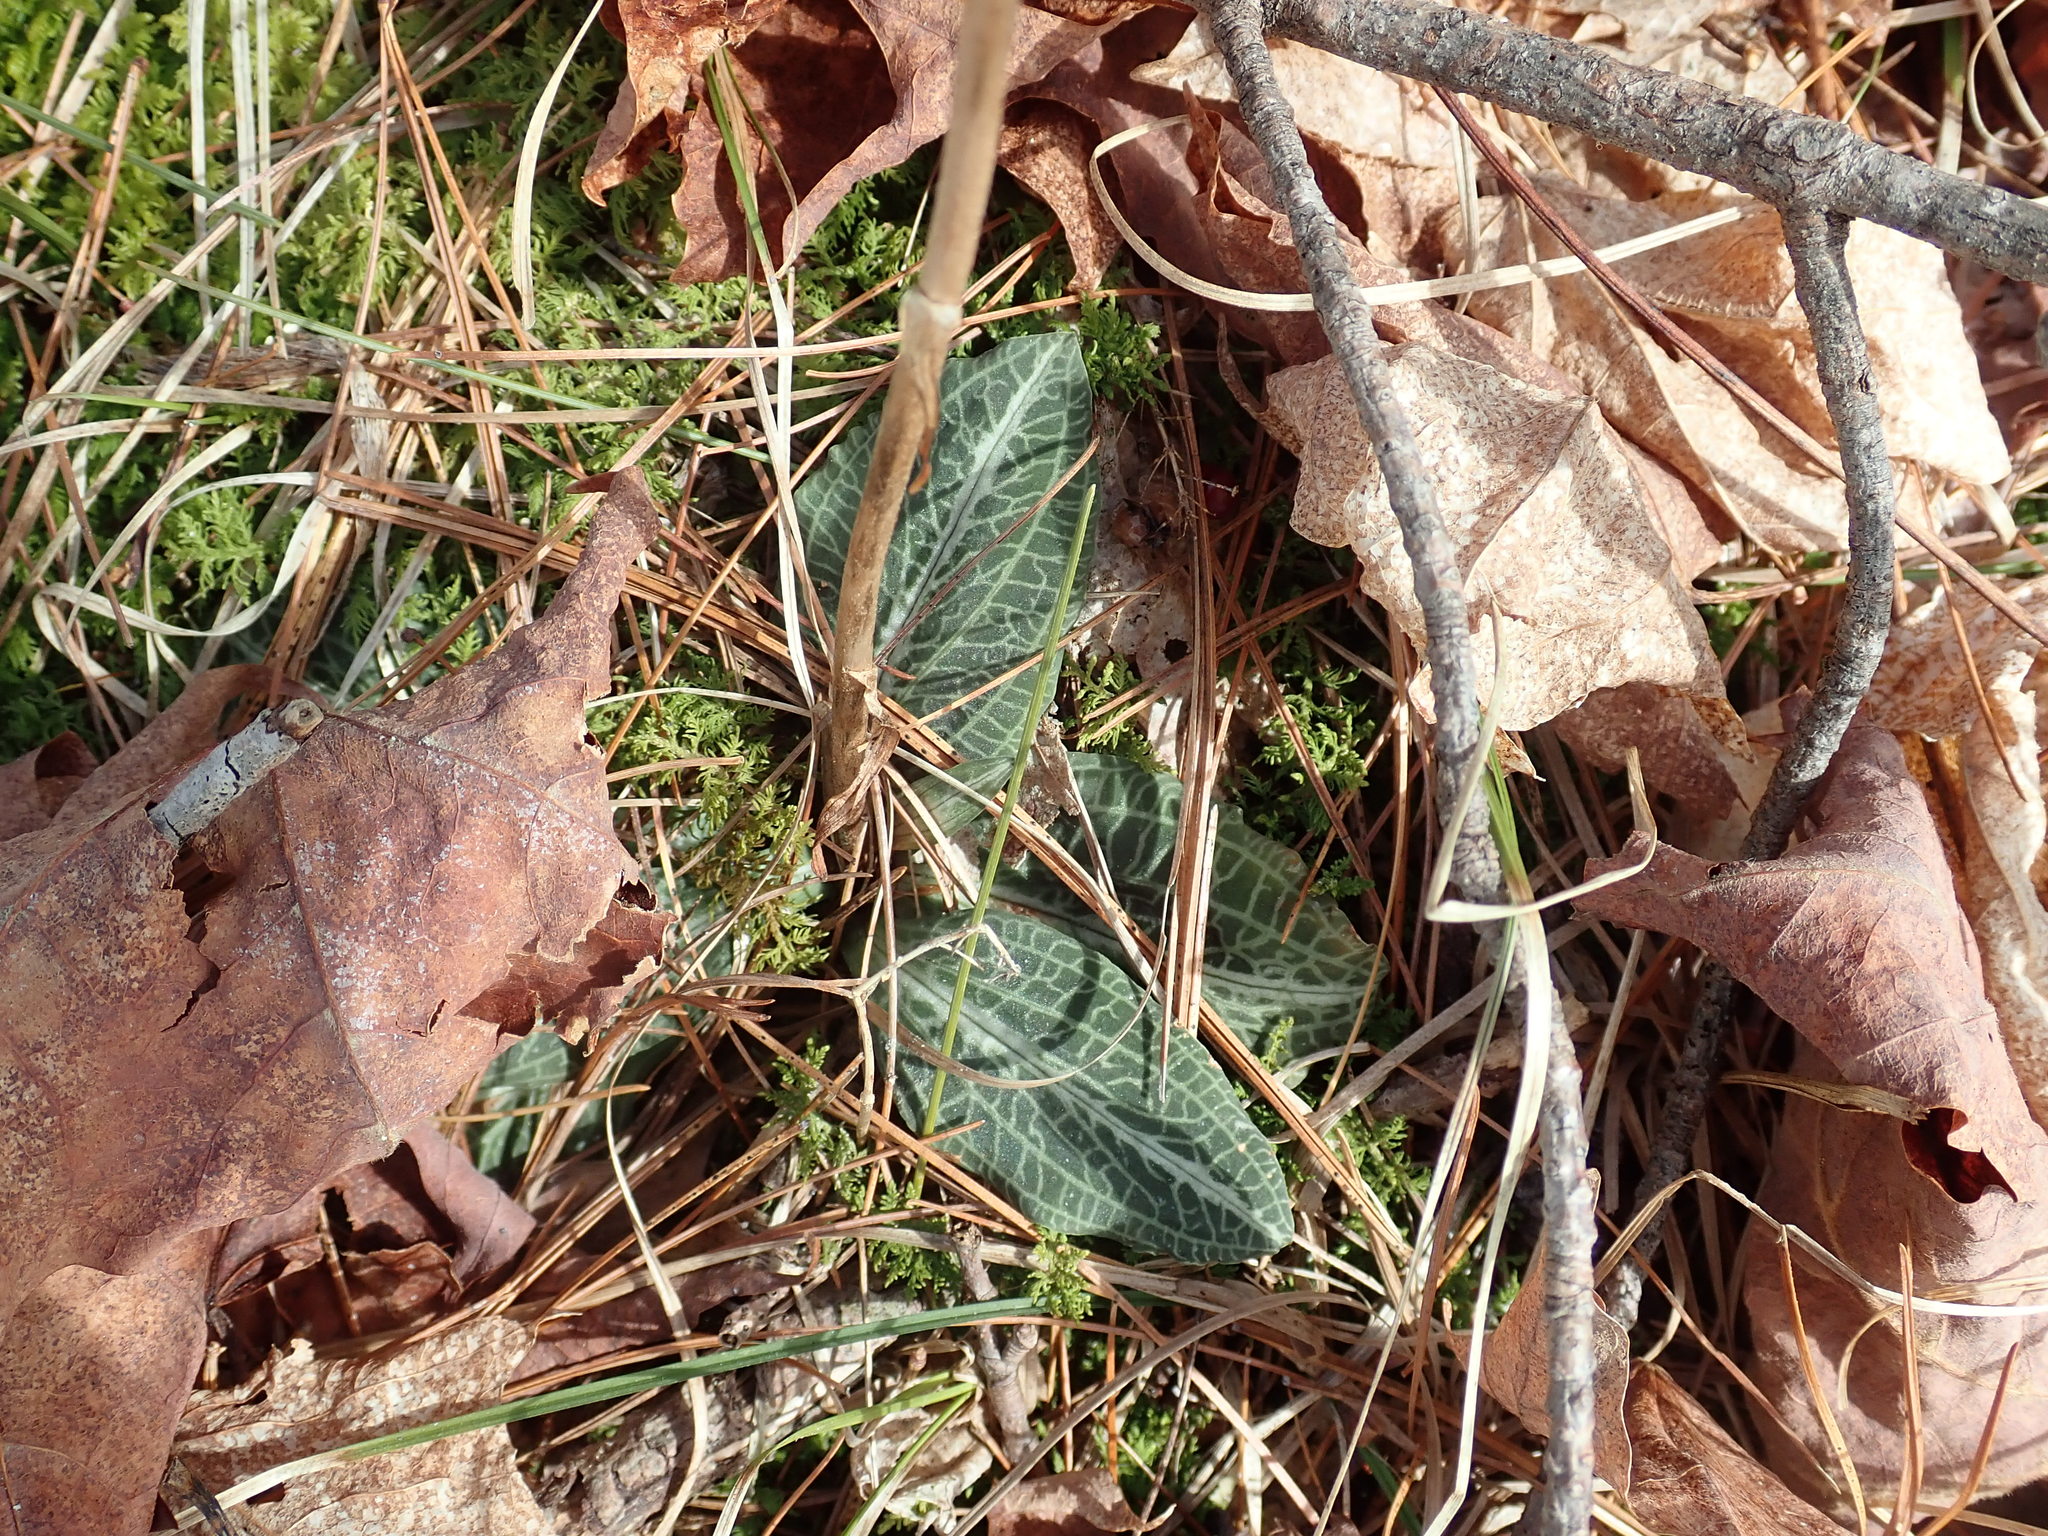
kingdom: Plantae
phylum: Tracheophyta
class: Liliopsida
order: Asparagales
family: Orchidaceae
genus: Goodyera
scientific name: Goodyera pubescens
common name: Downy rattlesnake-plantain
